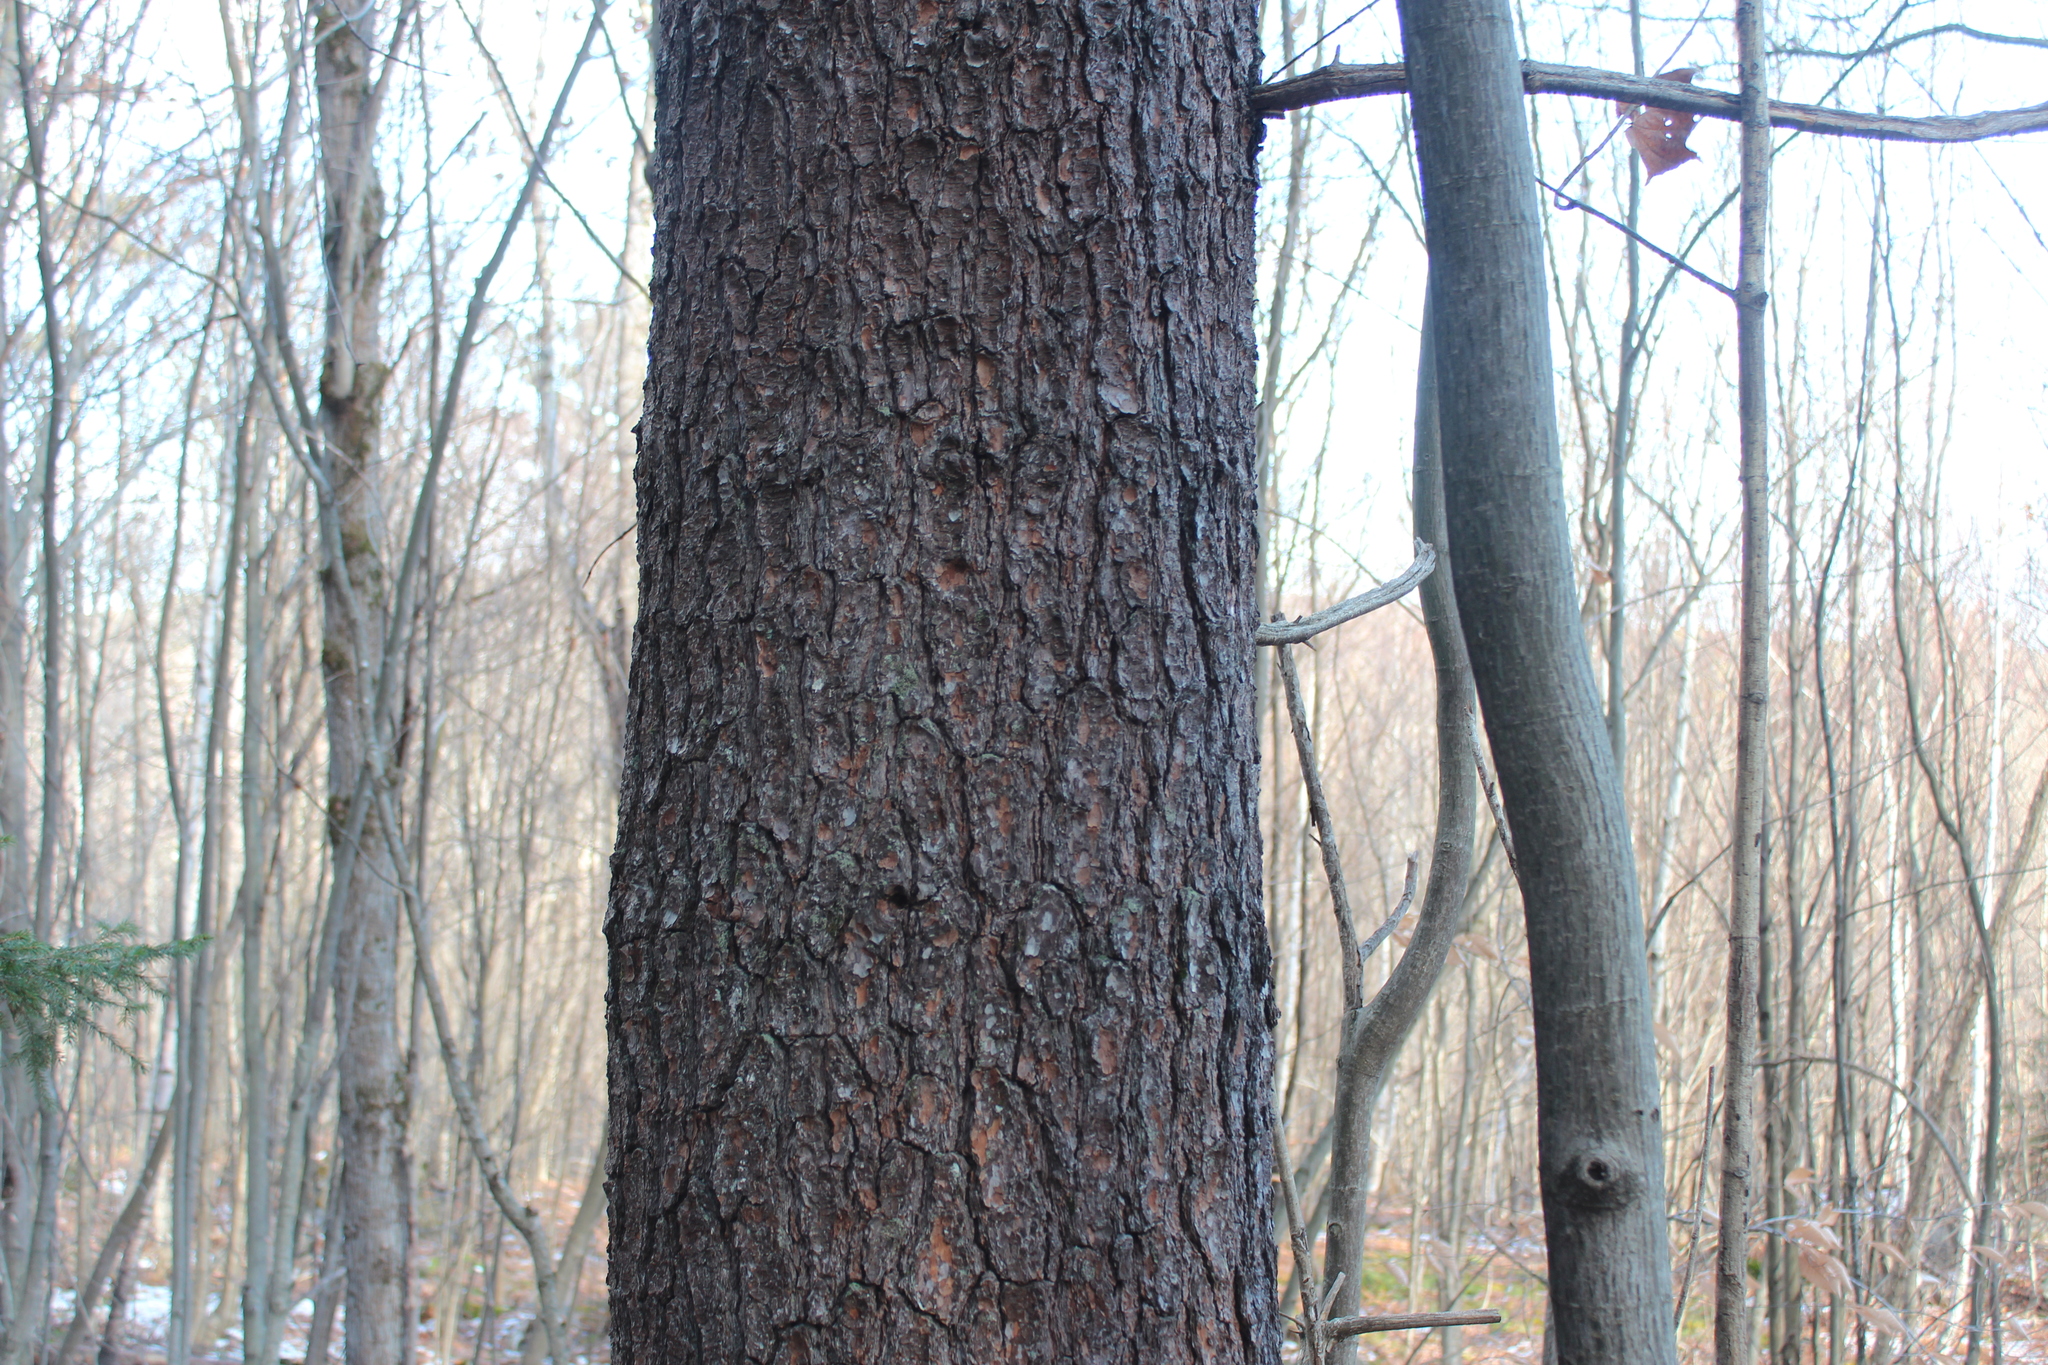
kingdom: Plantae
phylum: Tracheophyta
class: Pinopsida
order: Pinales
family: Pinaceae
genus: Pinus
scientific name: Pinus strobus
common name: Weymouth pine
